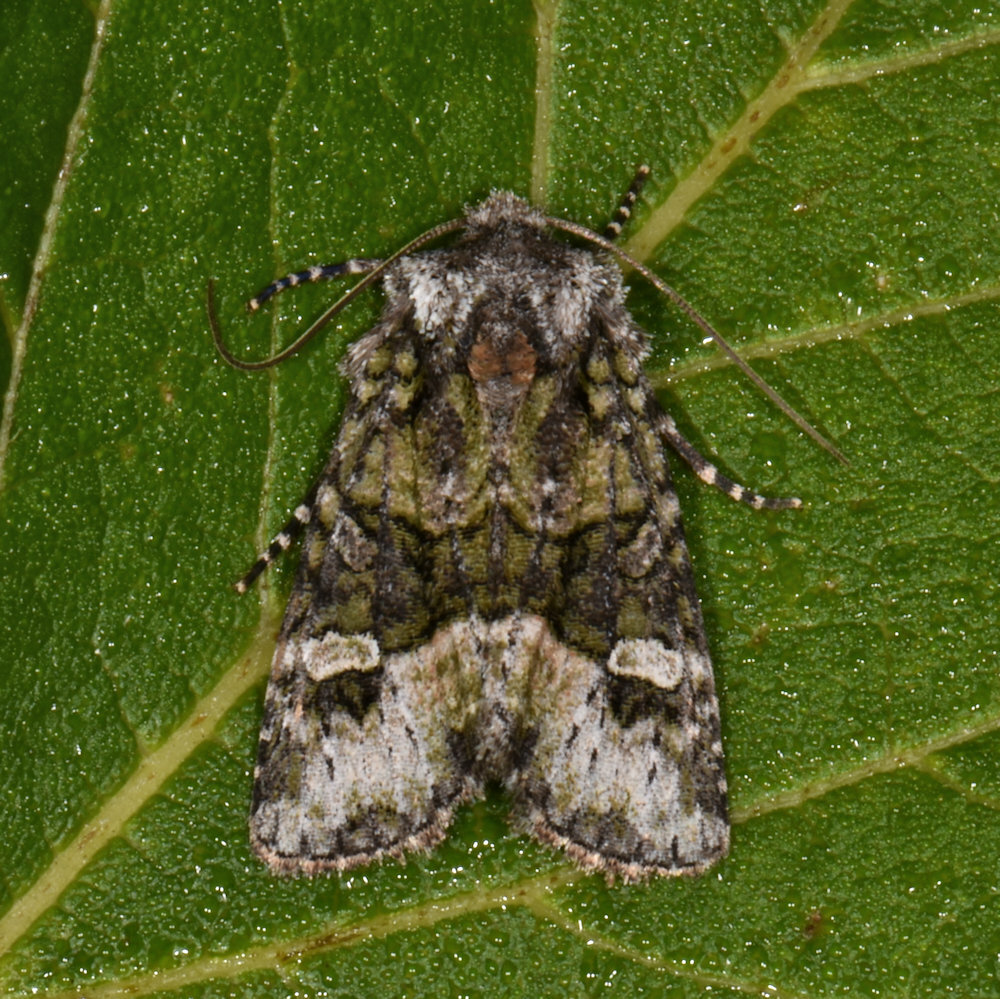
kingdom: Animalia
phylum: Arthropoda
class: Insecta
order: Lepidoptera
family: Noctuidae
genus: Lacinipolia
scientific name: Lacinipolia olivacea
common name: Olive arches moth
